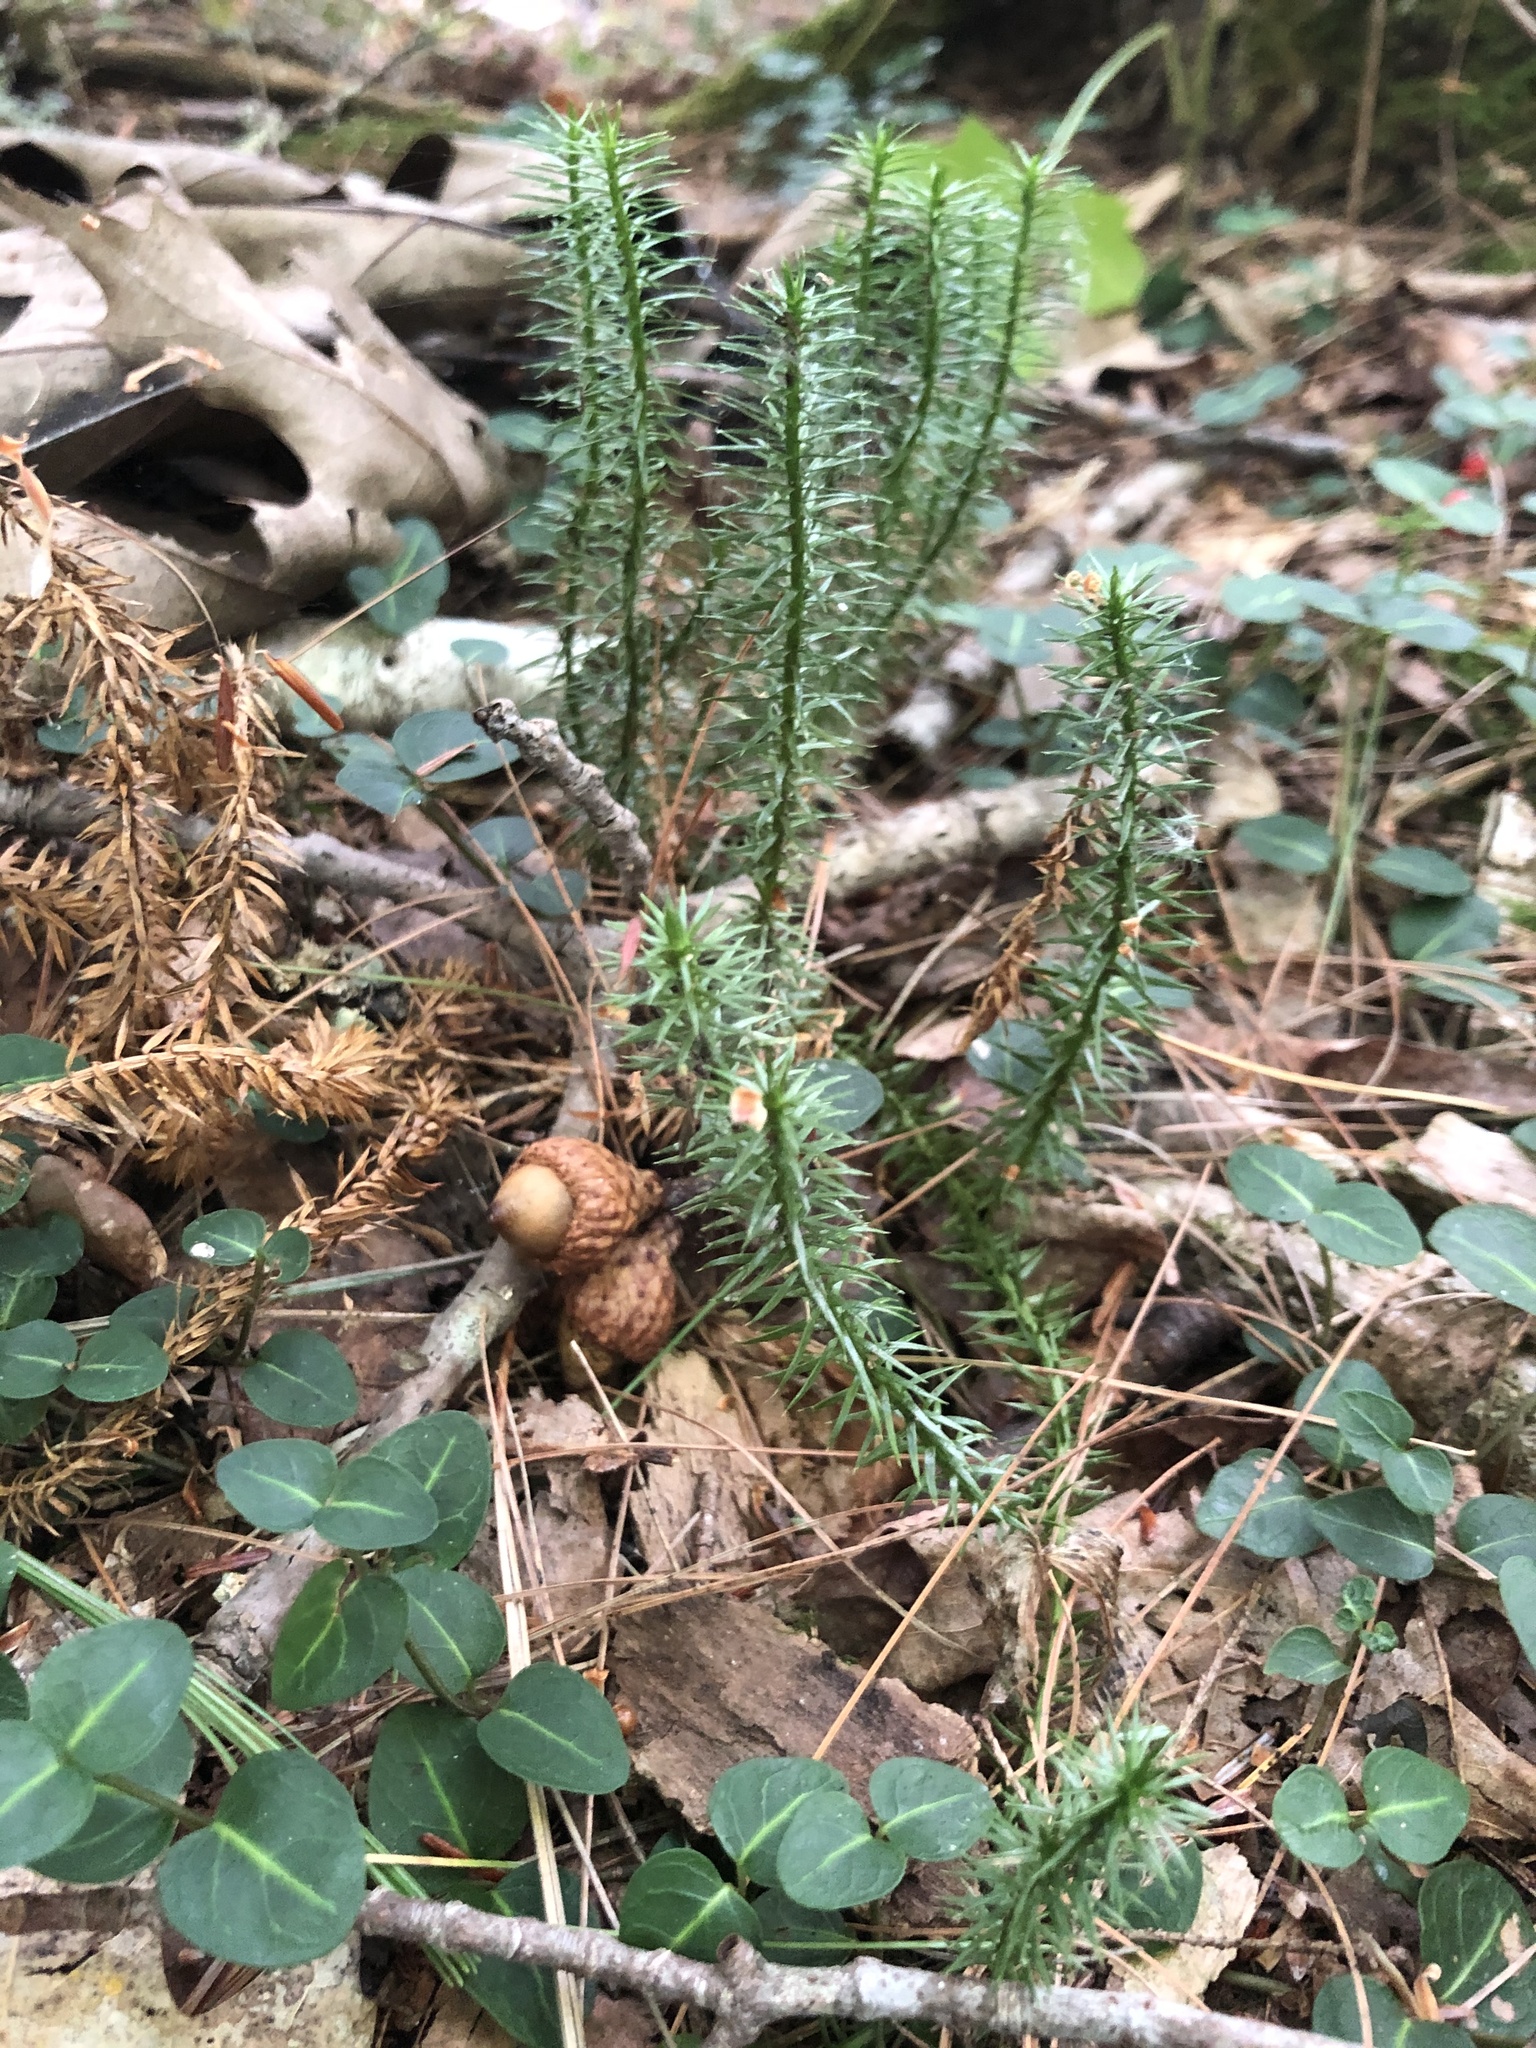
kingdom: Plantae
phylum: Tracheophyta
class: Lycopodiopsida
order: Lycopodiales
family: Lycopodiaceae
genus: Spinulum
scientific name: Spinulum annotinum
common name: Interrupted club-moss
